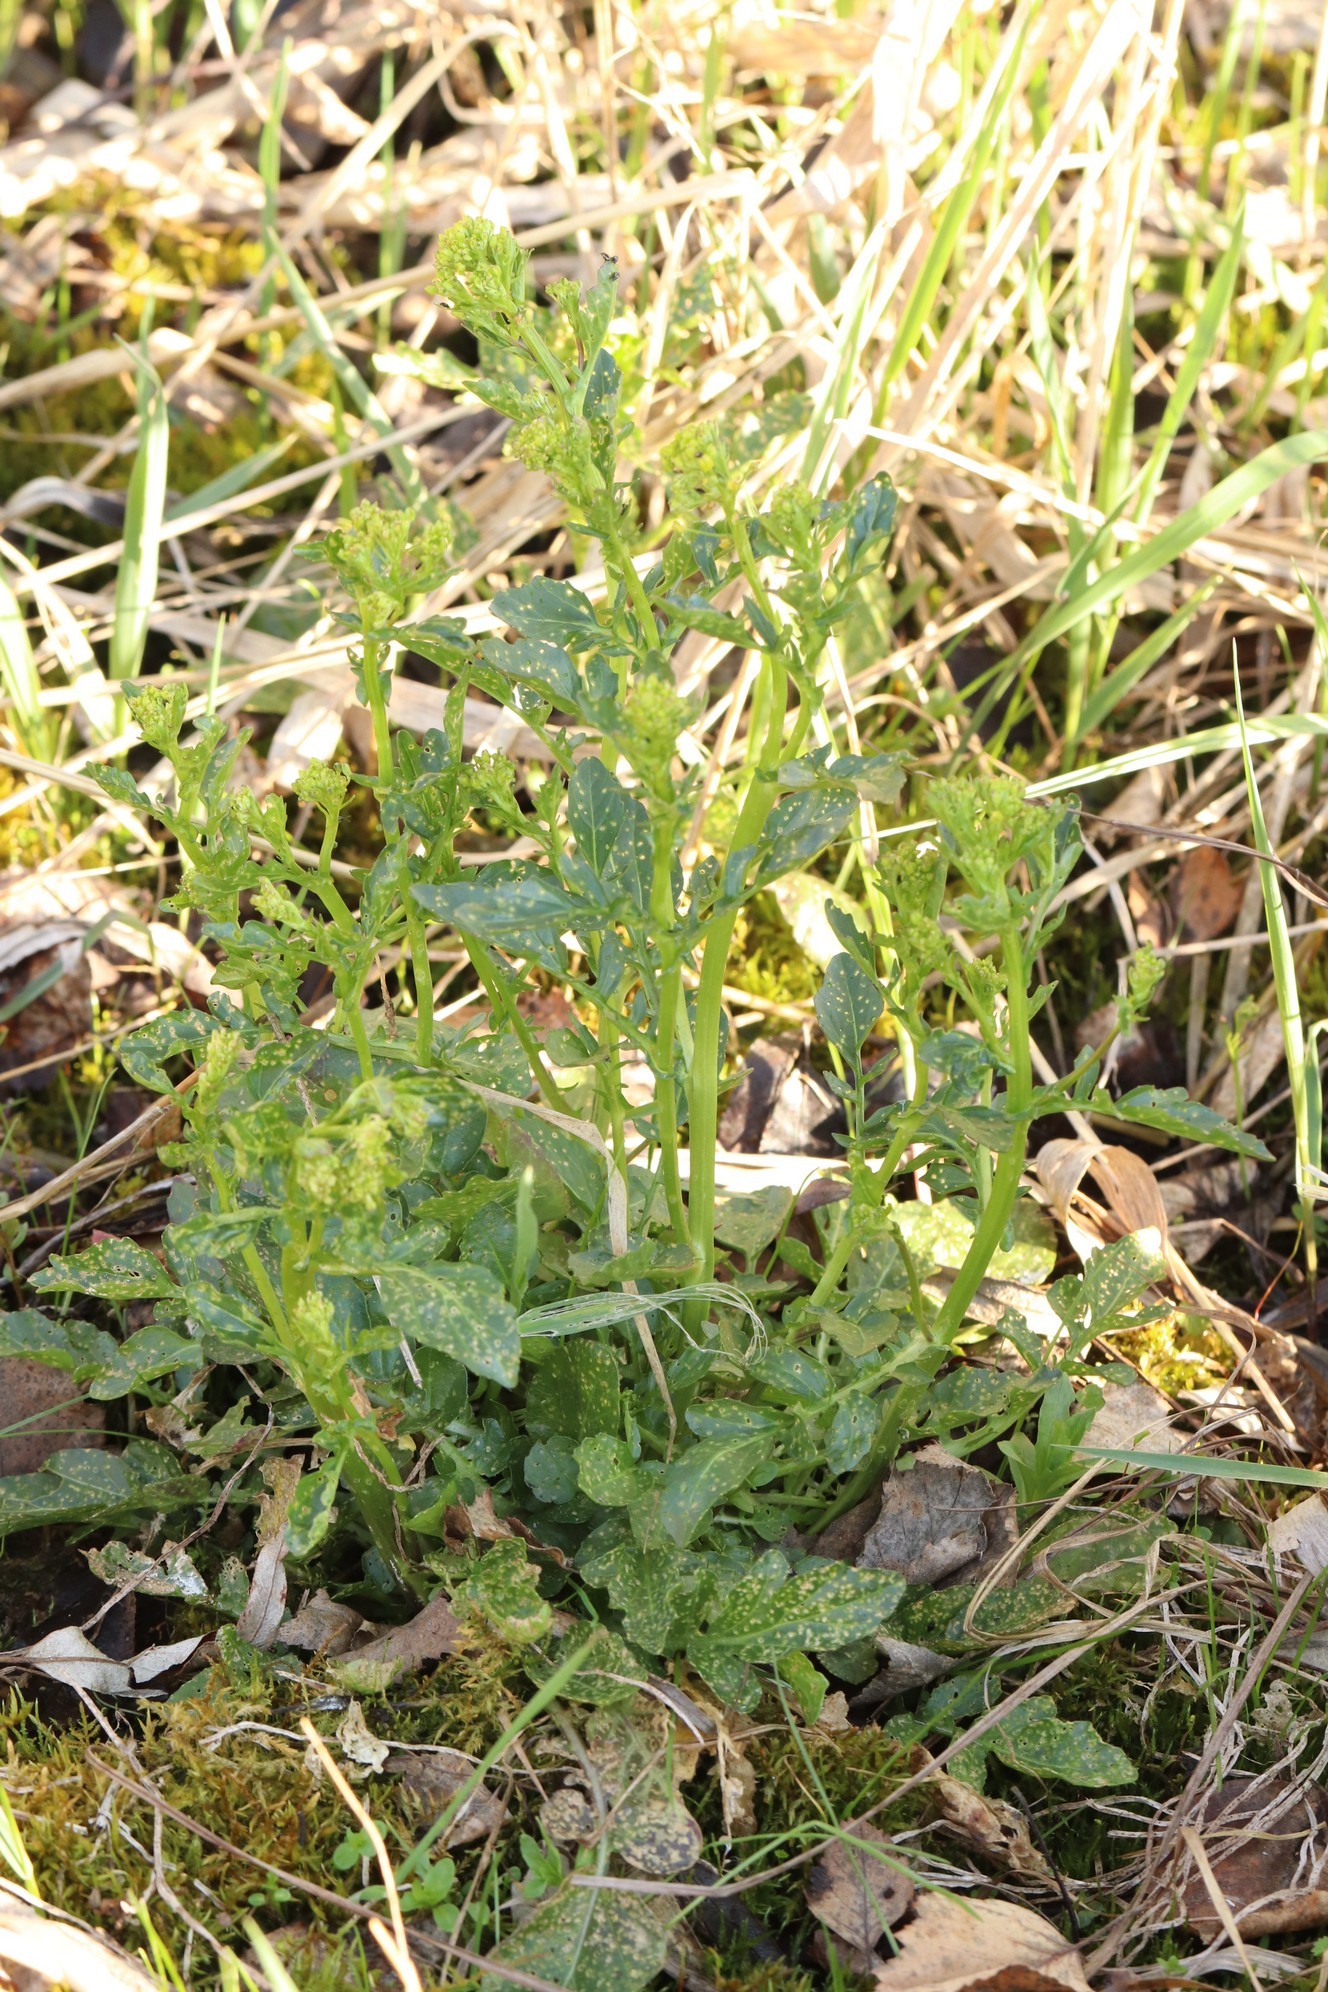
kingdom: Plantae
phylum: Tracheophyta
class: Magnoliopsida
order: Brassicales
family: Brassicaceae
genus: Barbarea
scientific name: Barbarea vulgaris
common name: Cressy-greens
